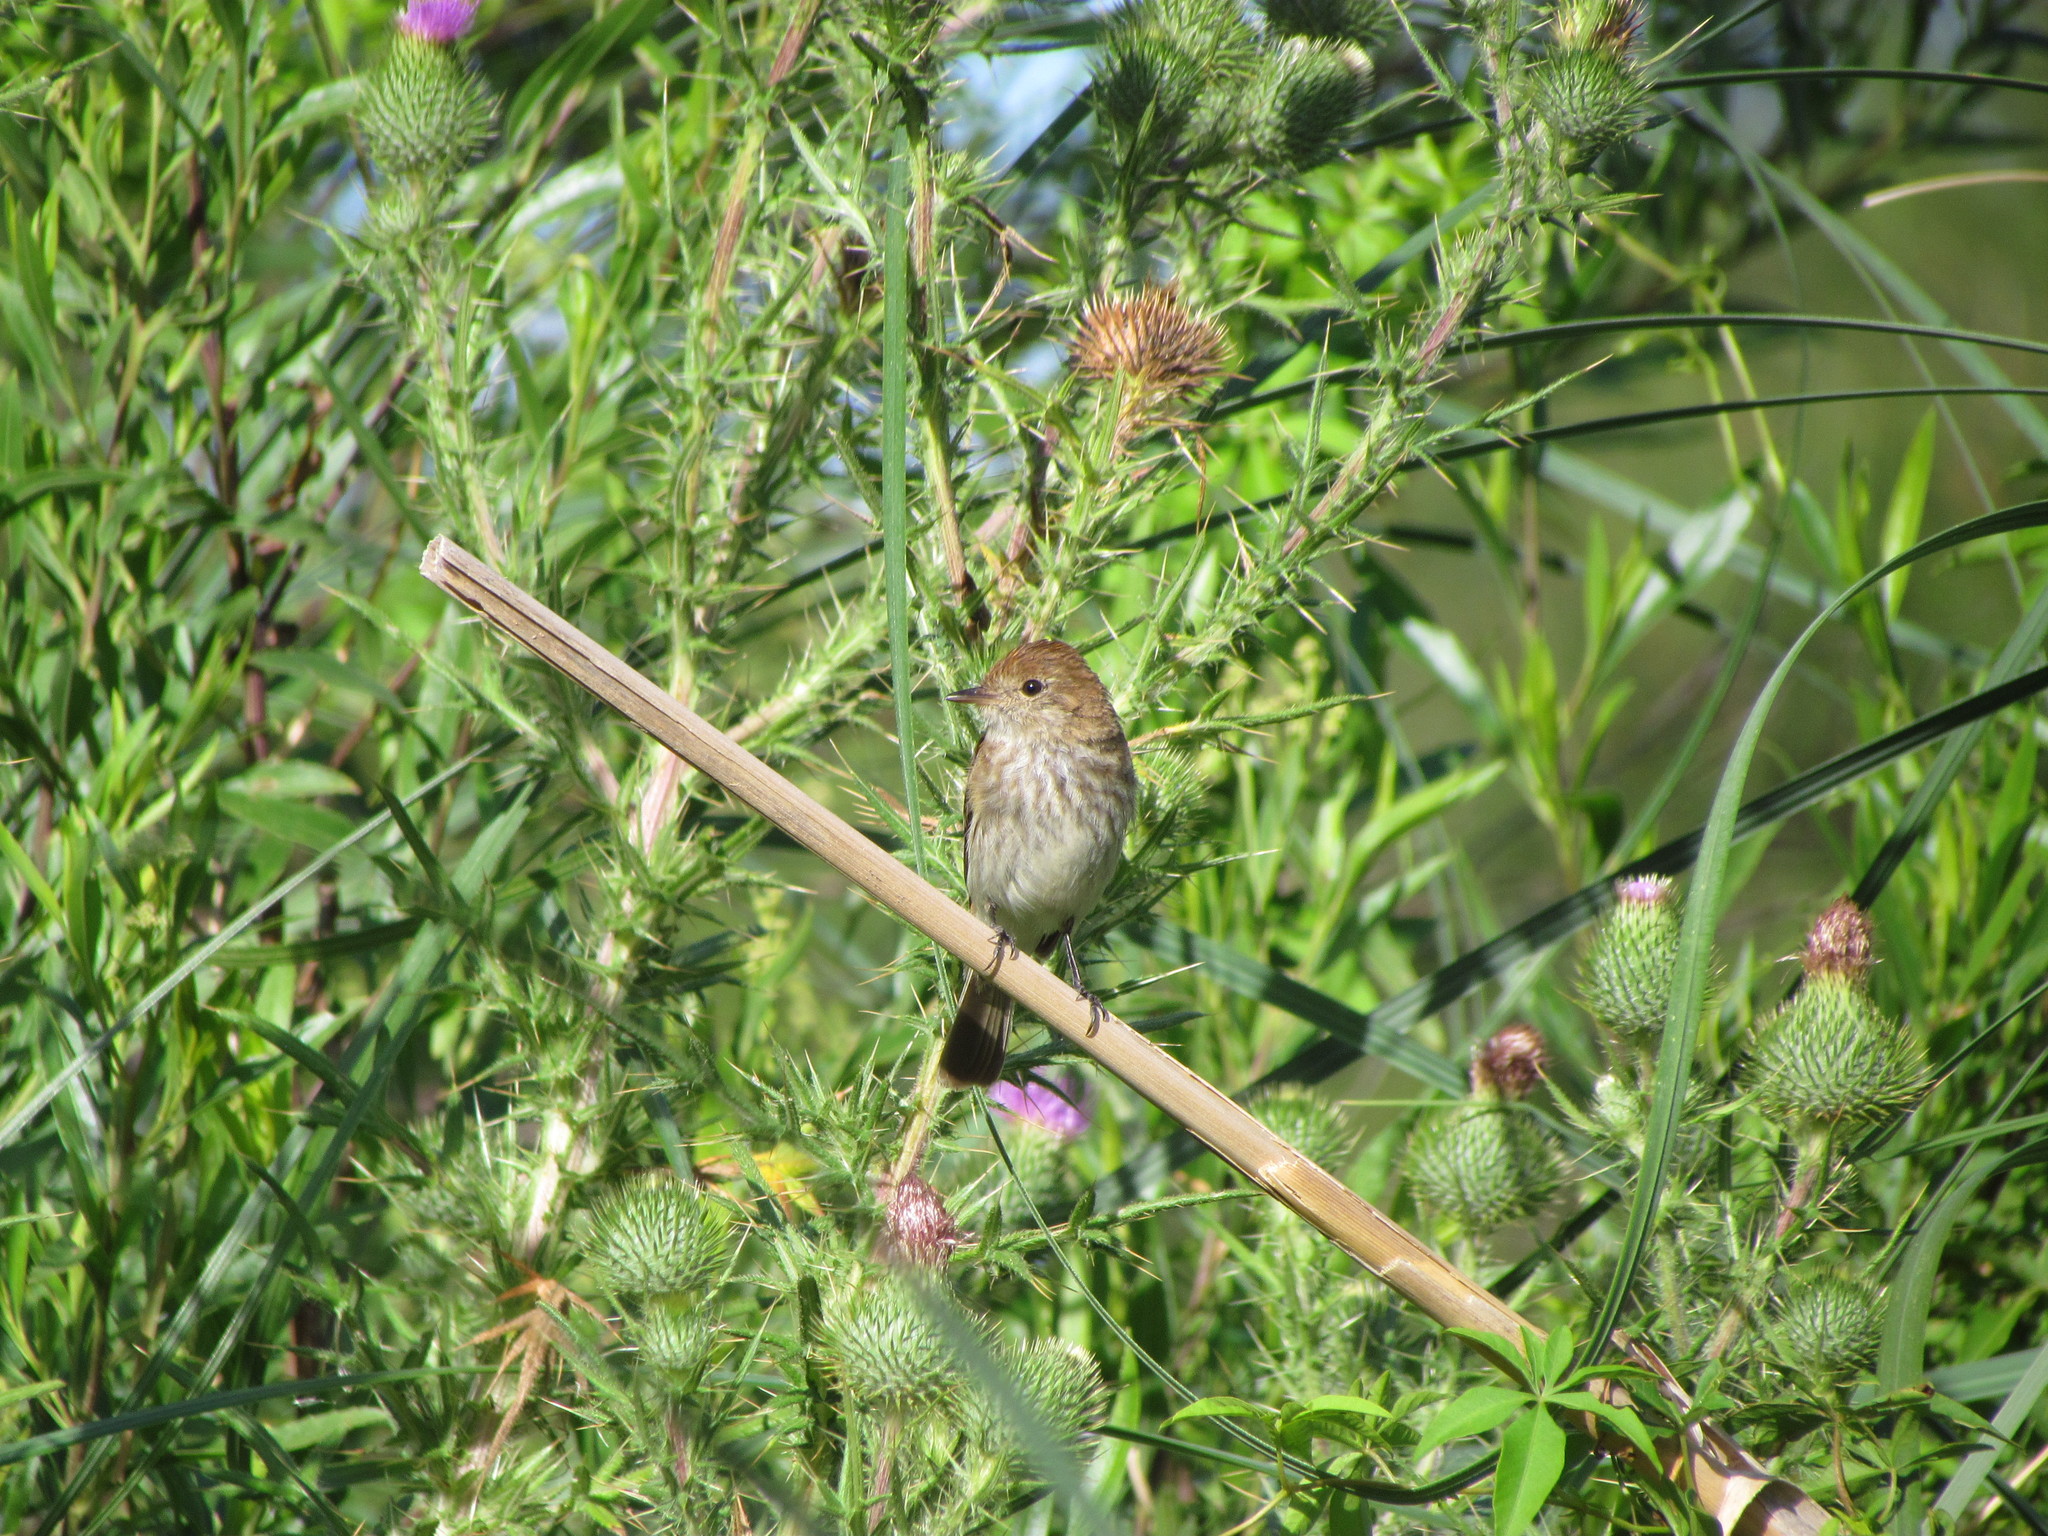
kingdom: Animalia
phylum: Chordata
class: Aves
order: Passeriformes
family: Tyrannidae
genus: Myiophobus
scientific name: Myiophobus fasciatus
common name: Bran-colored flycatcher
